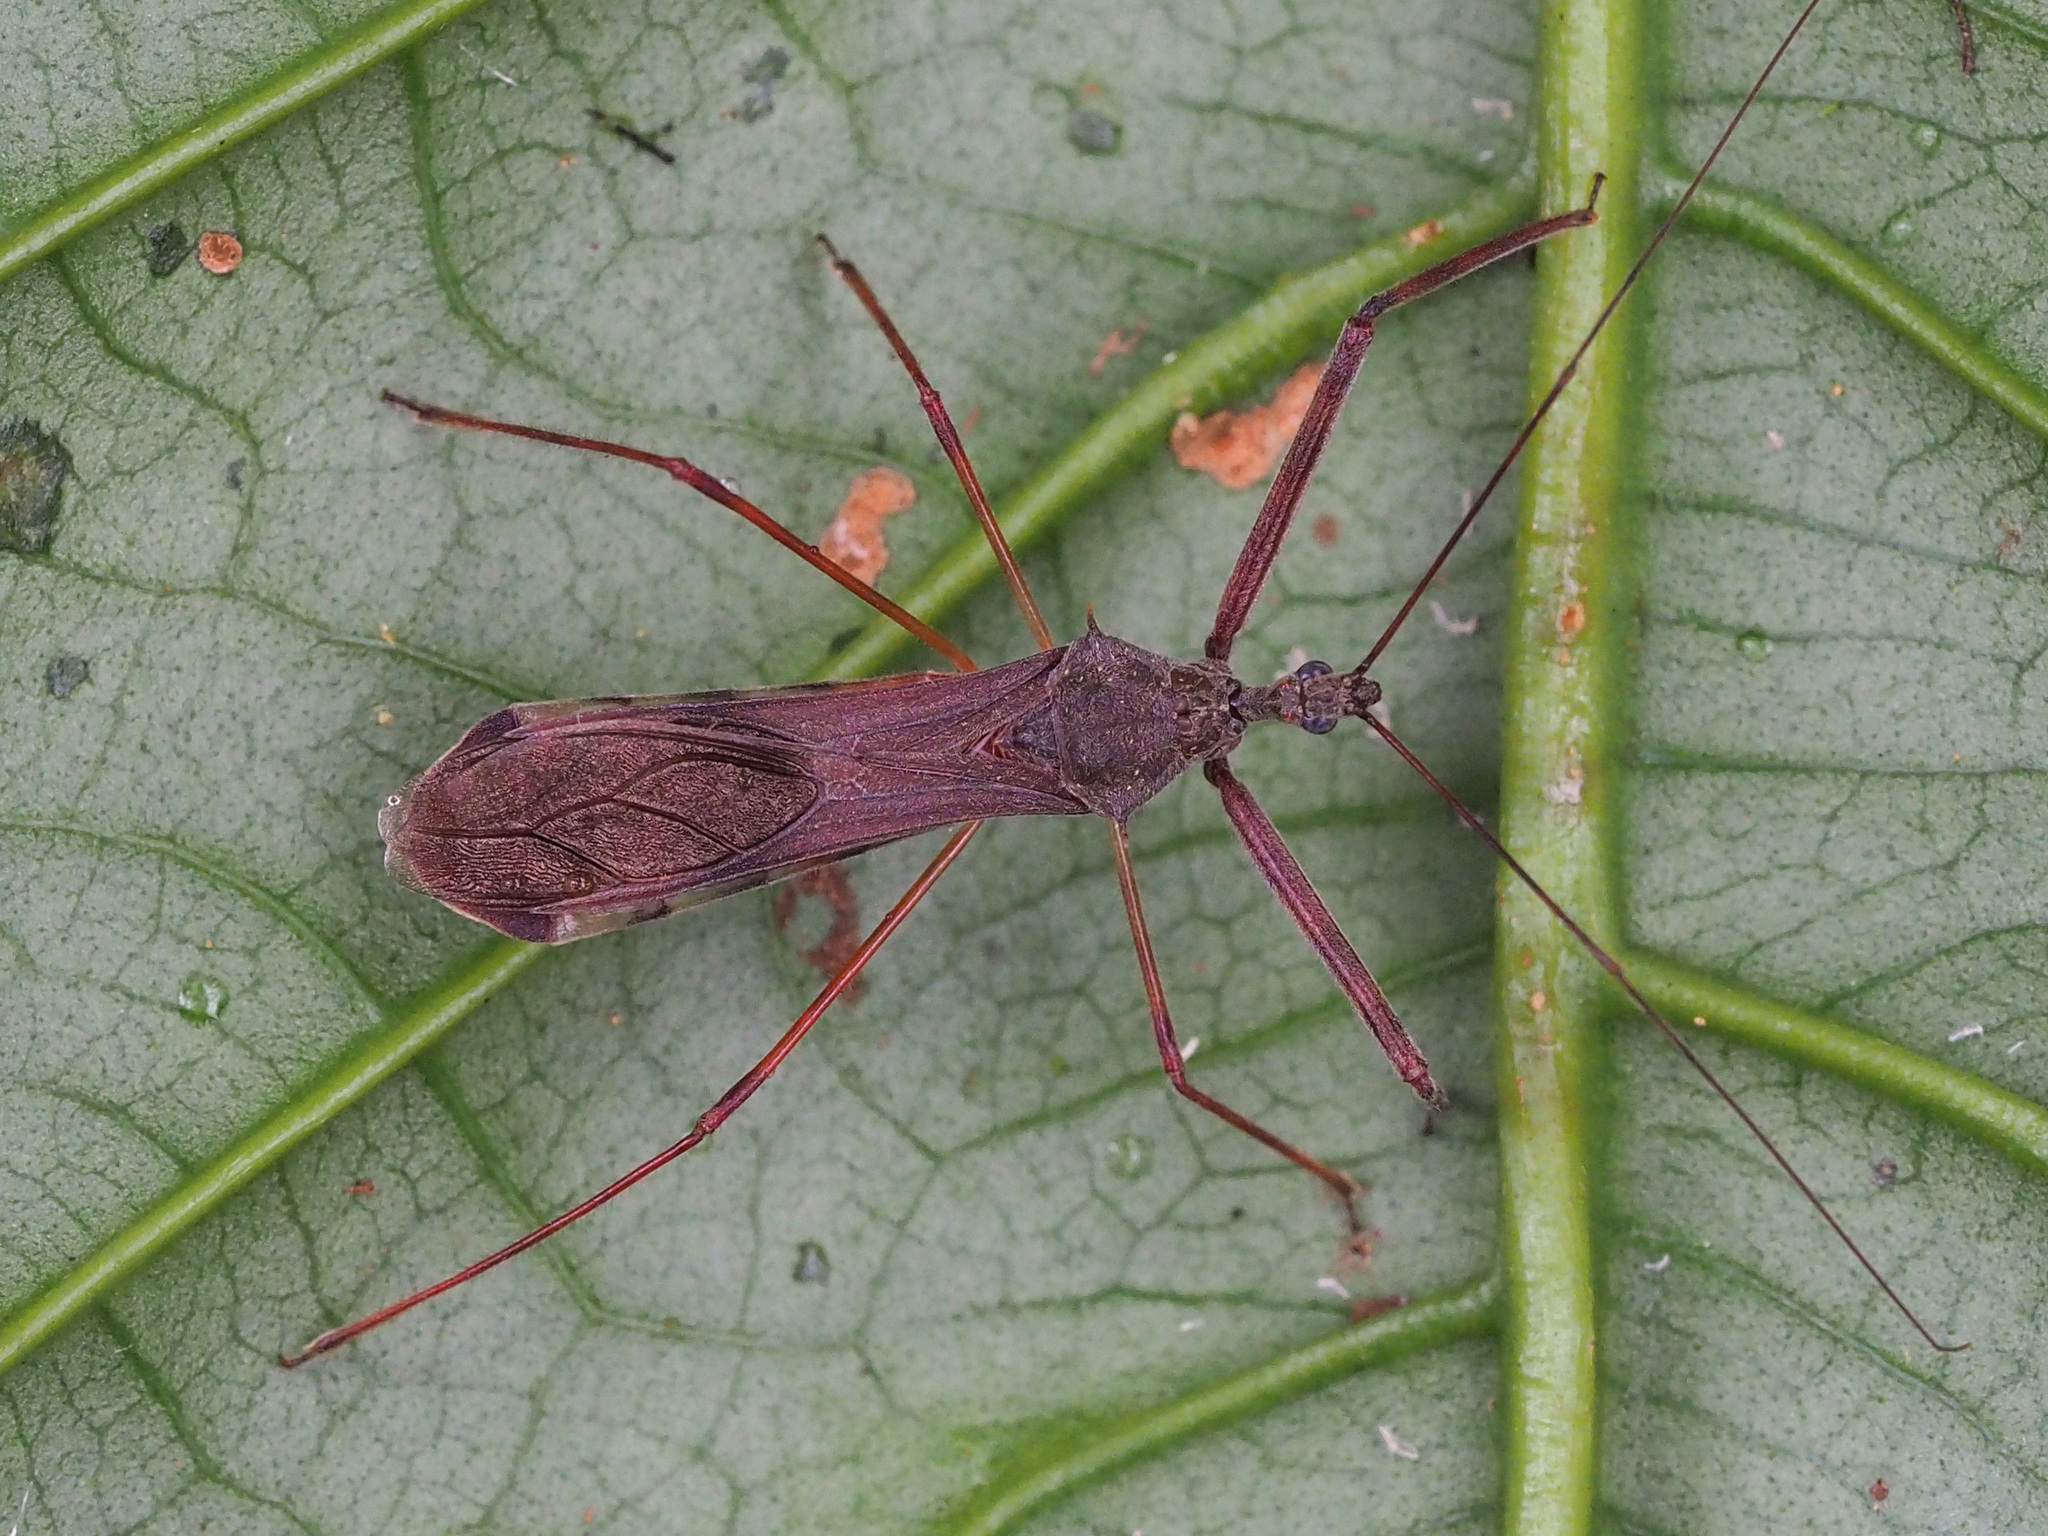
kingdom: Animalia
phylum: Arthropoda
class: Insecta
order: Hemiptera
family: Reduviidae
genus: Heza
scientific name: Heza ephippium
